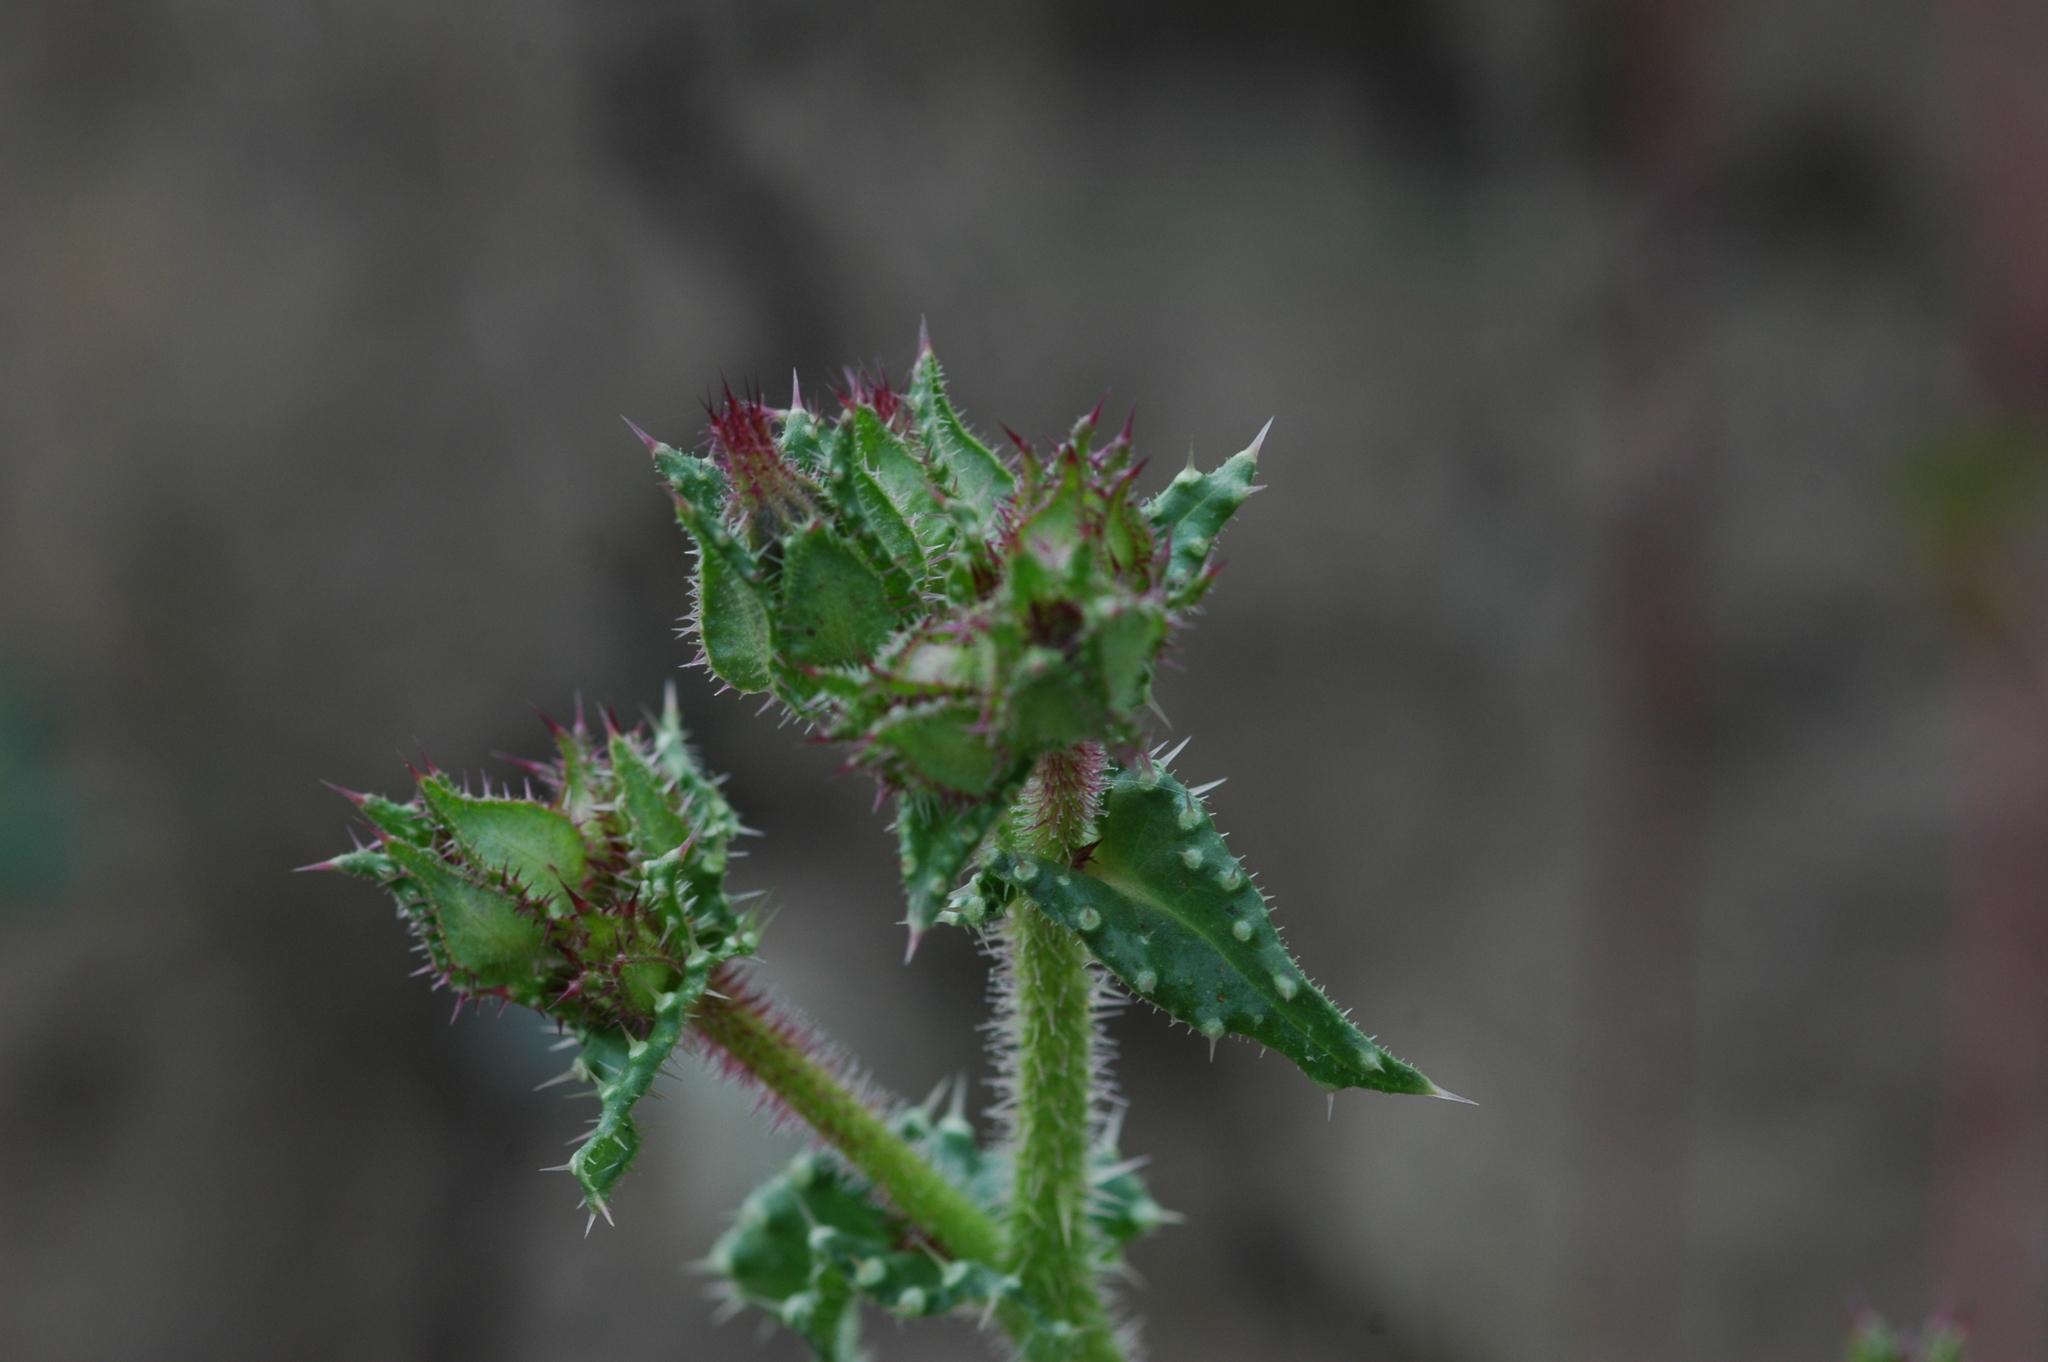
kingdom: Plantae
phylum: Tracheophyta
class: Magnoliopsida
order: Asterales
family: Asteraceae
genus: Helminthotheca
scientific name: Helminthotheca echioides
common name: Ox-tongue
